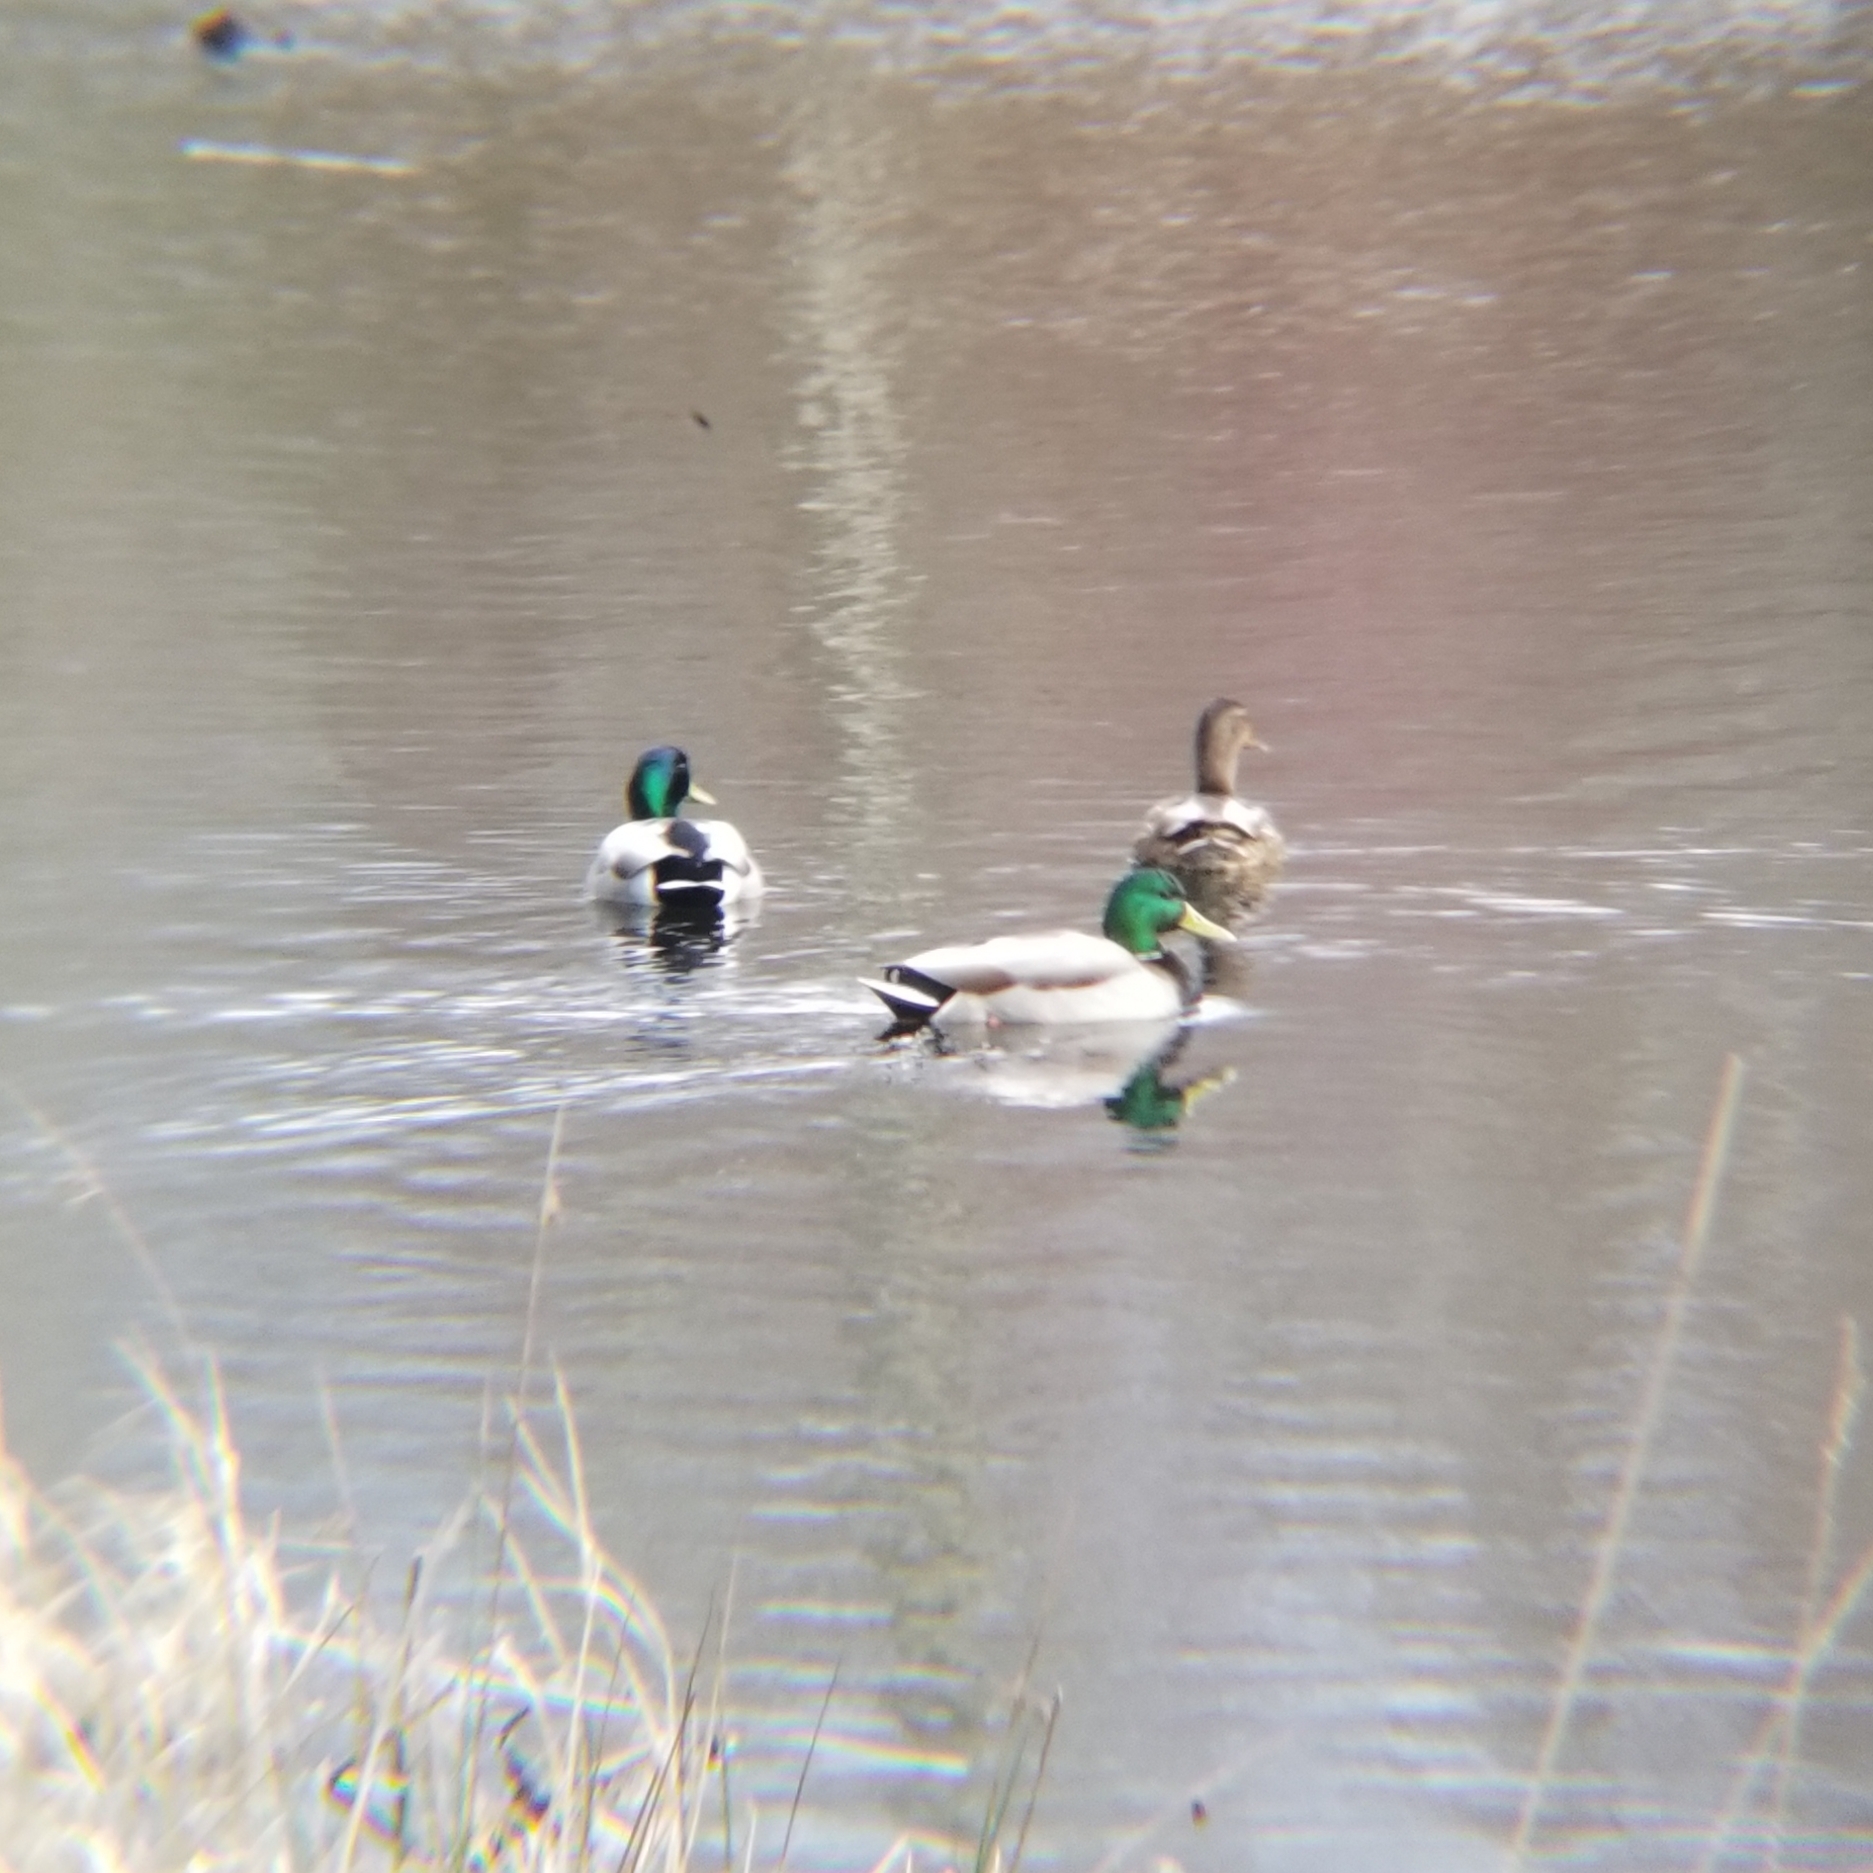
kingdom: Animalia
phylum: Chordata
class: Aves
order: Anseriformes
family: Anatidae
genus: Anas
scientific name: Anas platyrhynchos
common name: Mallard
